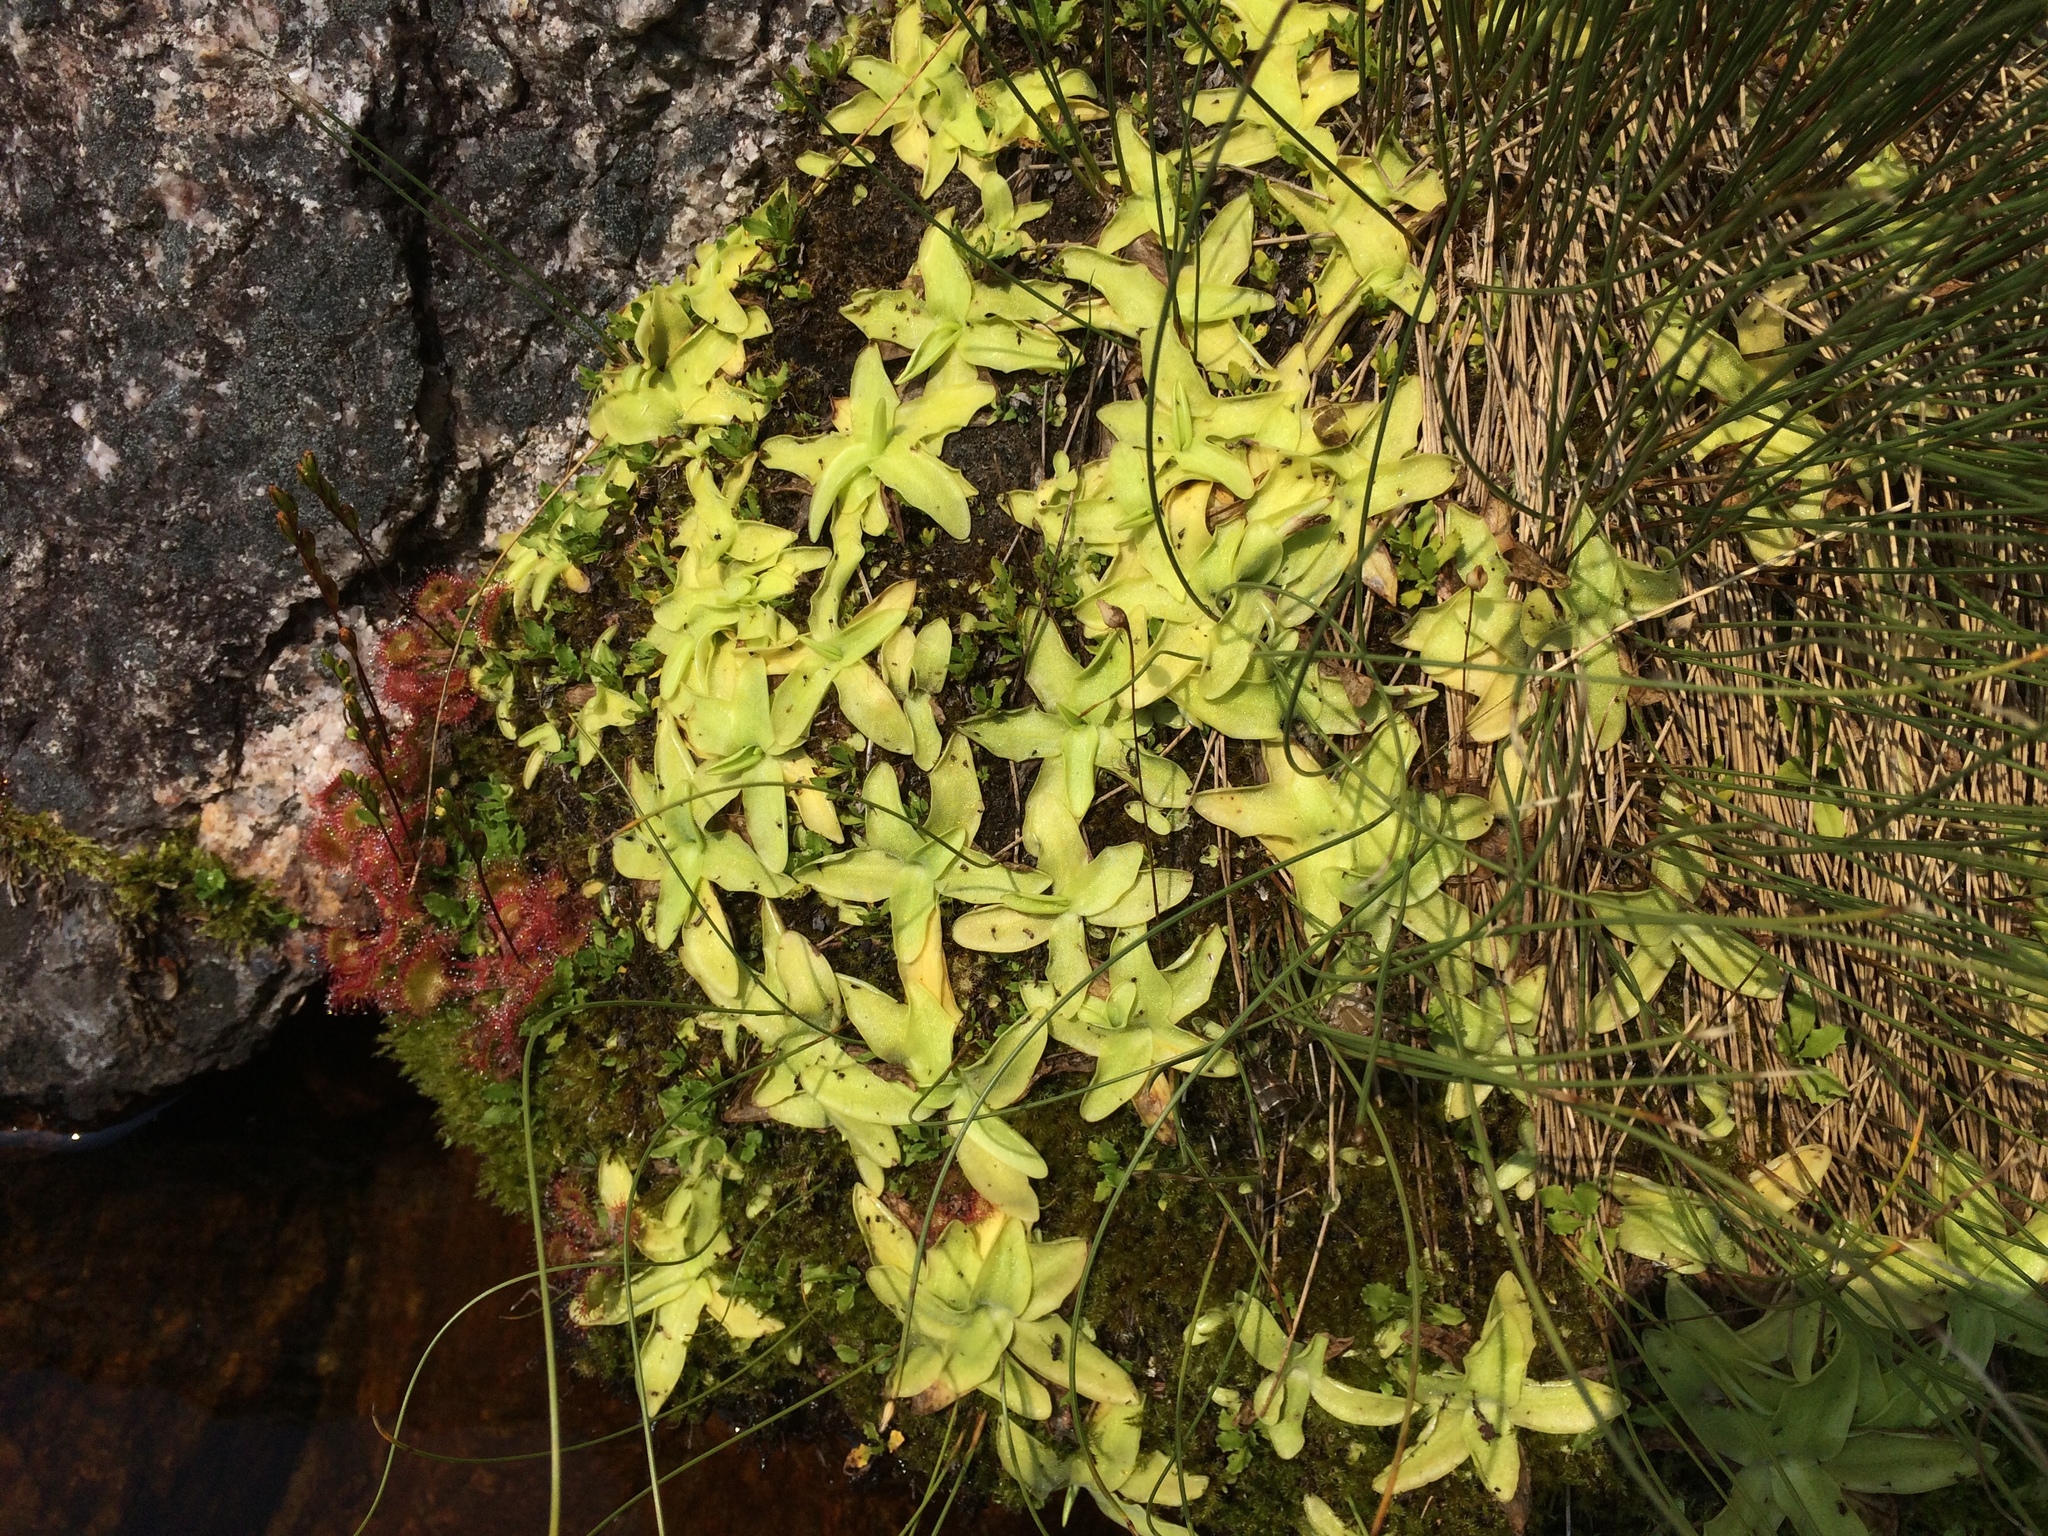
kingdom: Plantae
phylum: Tracheophyta
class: Magnoliopsida
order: Lamiales
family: Lentibulariaceae
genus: Pinguicula
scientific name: Pinguicula vulgaris
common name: Common butterwort
